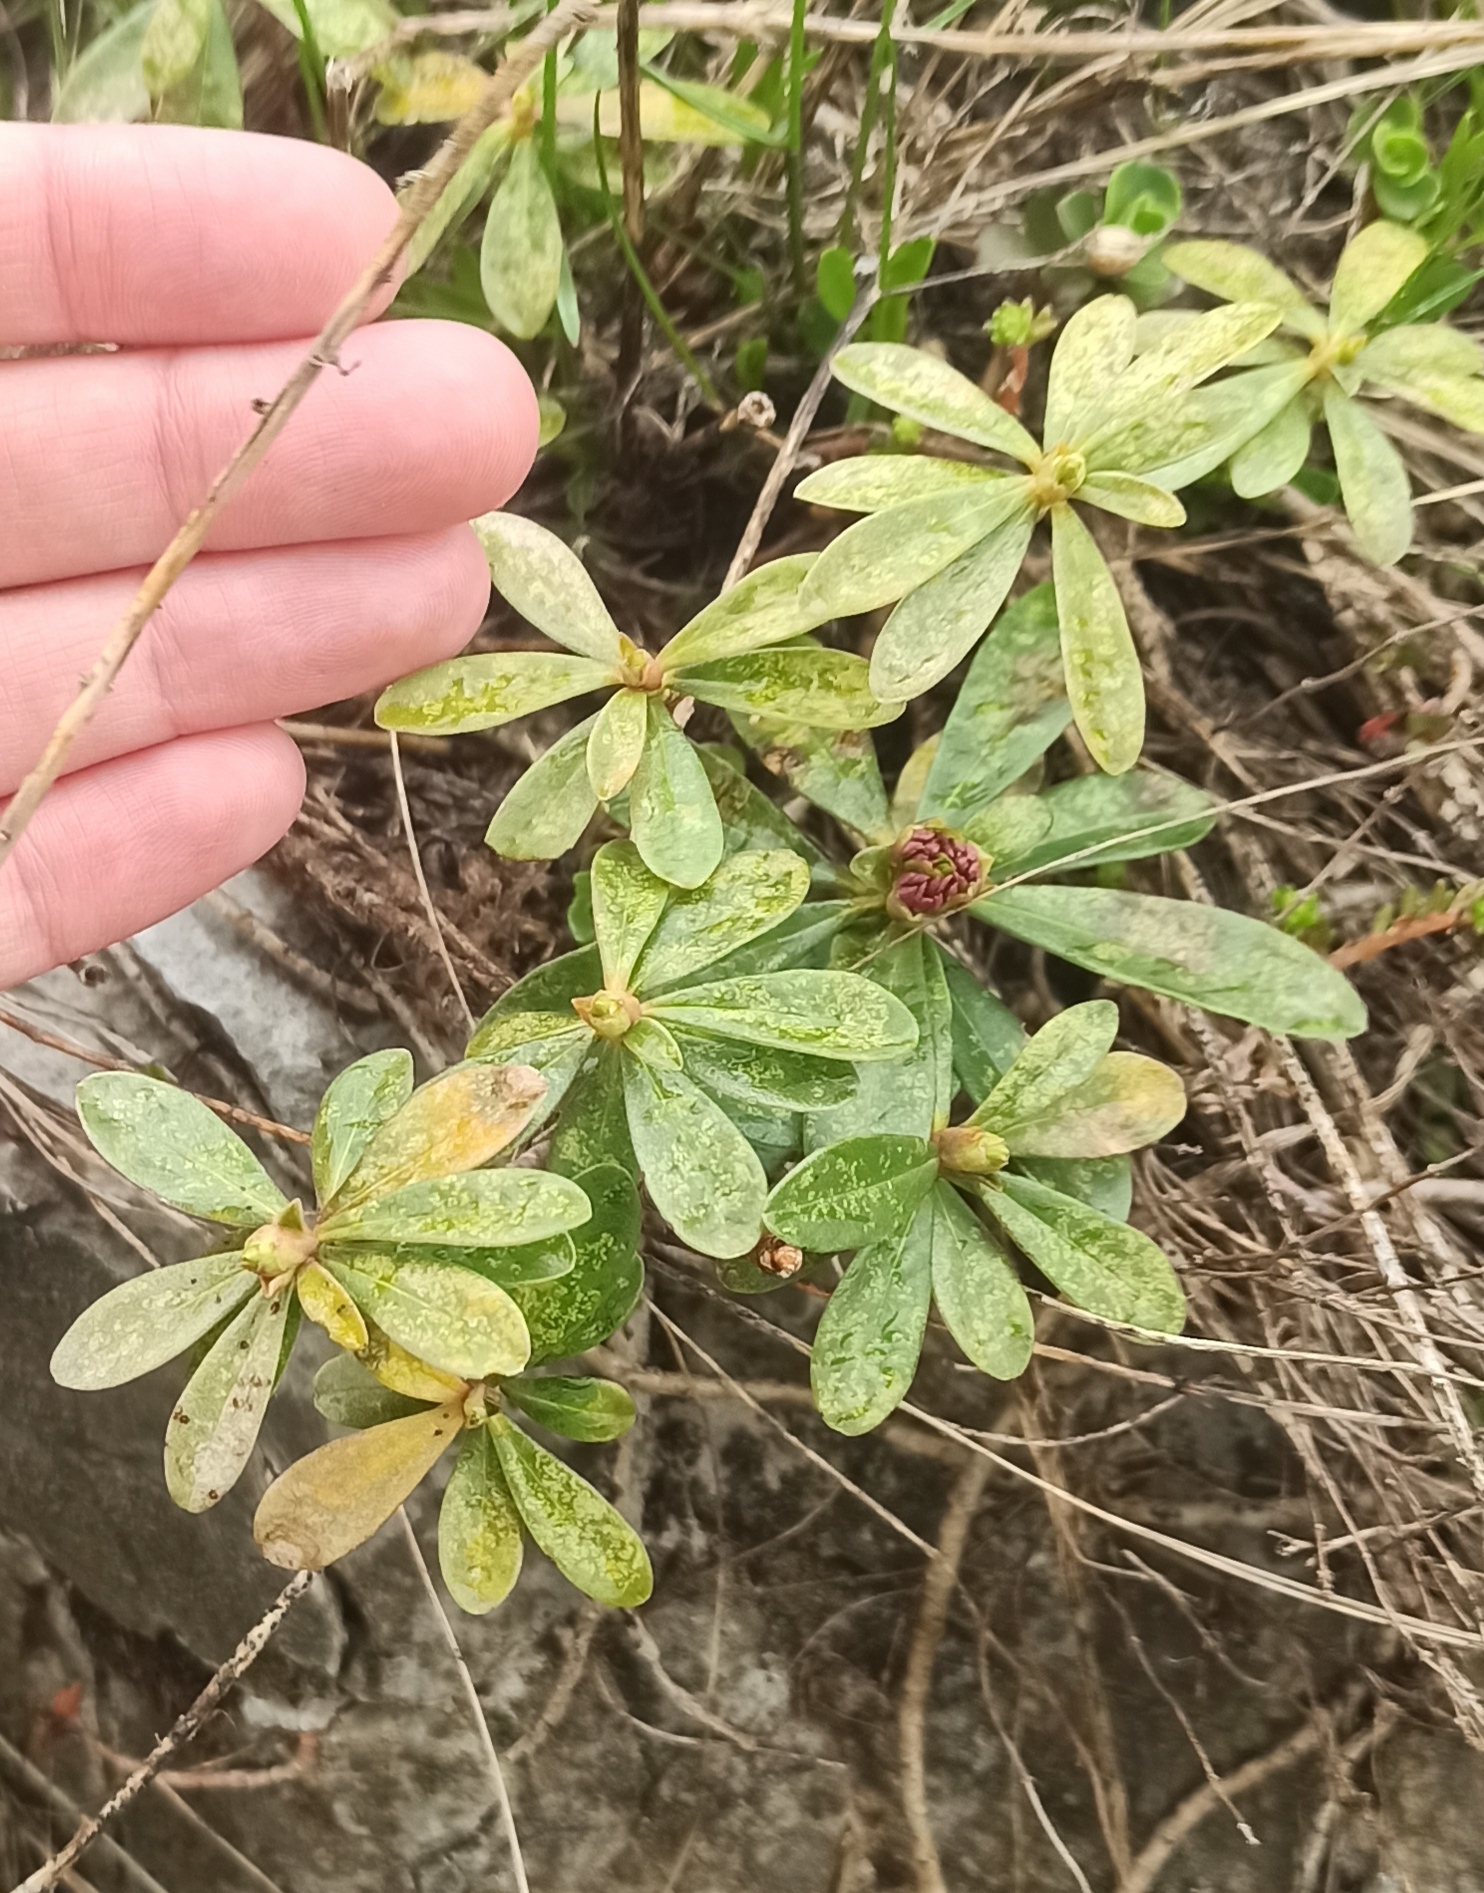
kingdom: Plantae
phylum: Tracheophyta
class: Magnoliopsida
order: Malvales
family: Thymelaeaceae
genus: Daphne
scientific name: Daphne glomerata
